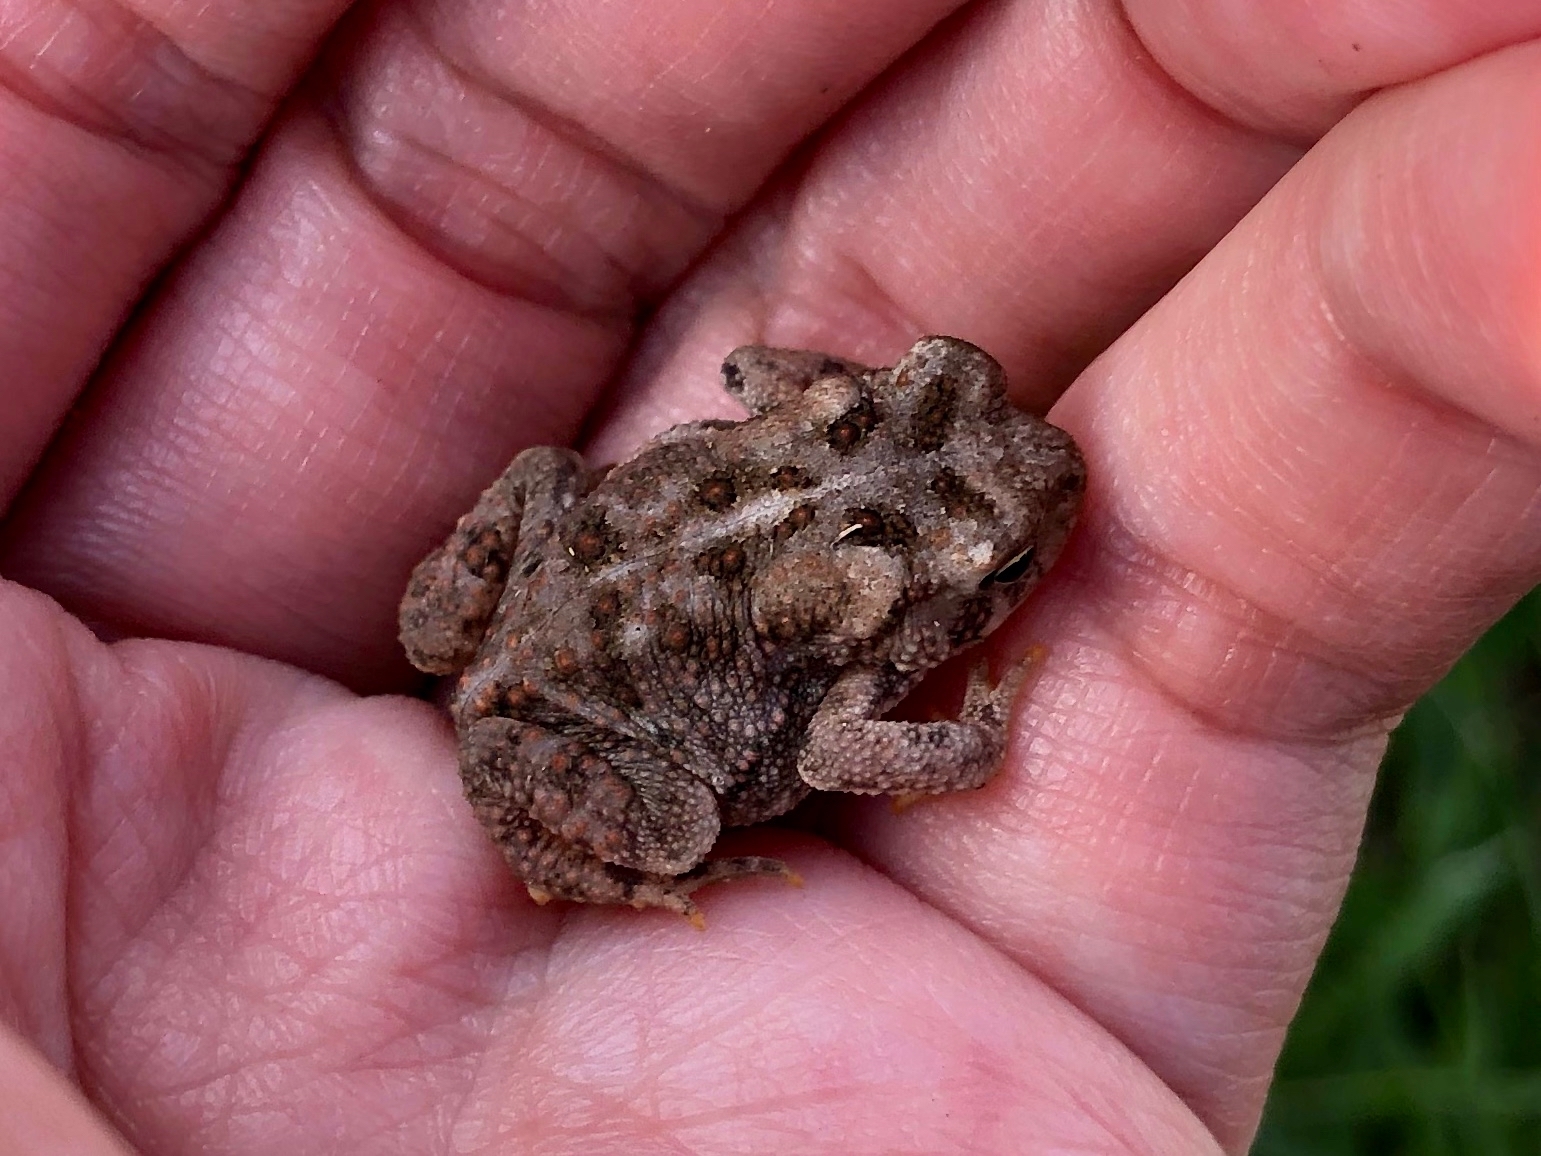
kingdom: Animalia
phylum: Chordata
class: Amphibia
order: Anura
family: Bufonidae
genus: Anaxyrus
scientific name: Anaxyrus americanus
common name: American toad
